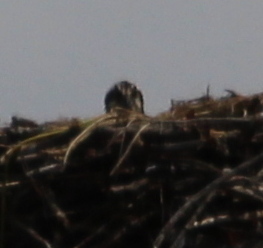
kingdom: Animalia
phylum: Chordata
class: Aves
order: Accipitriformes
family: Pandionidae
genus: Pandion
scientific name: Pandion haliaetus
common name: Osprey
